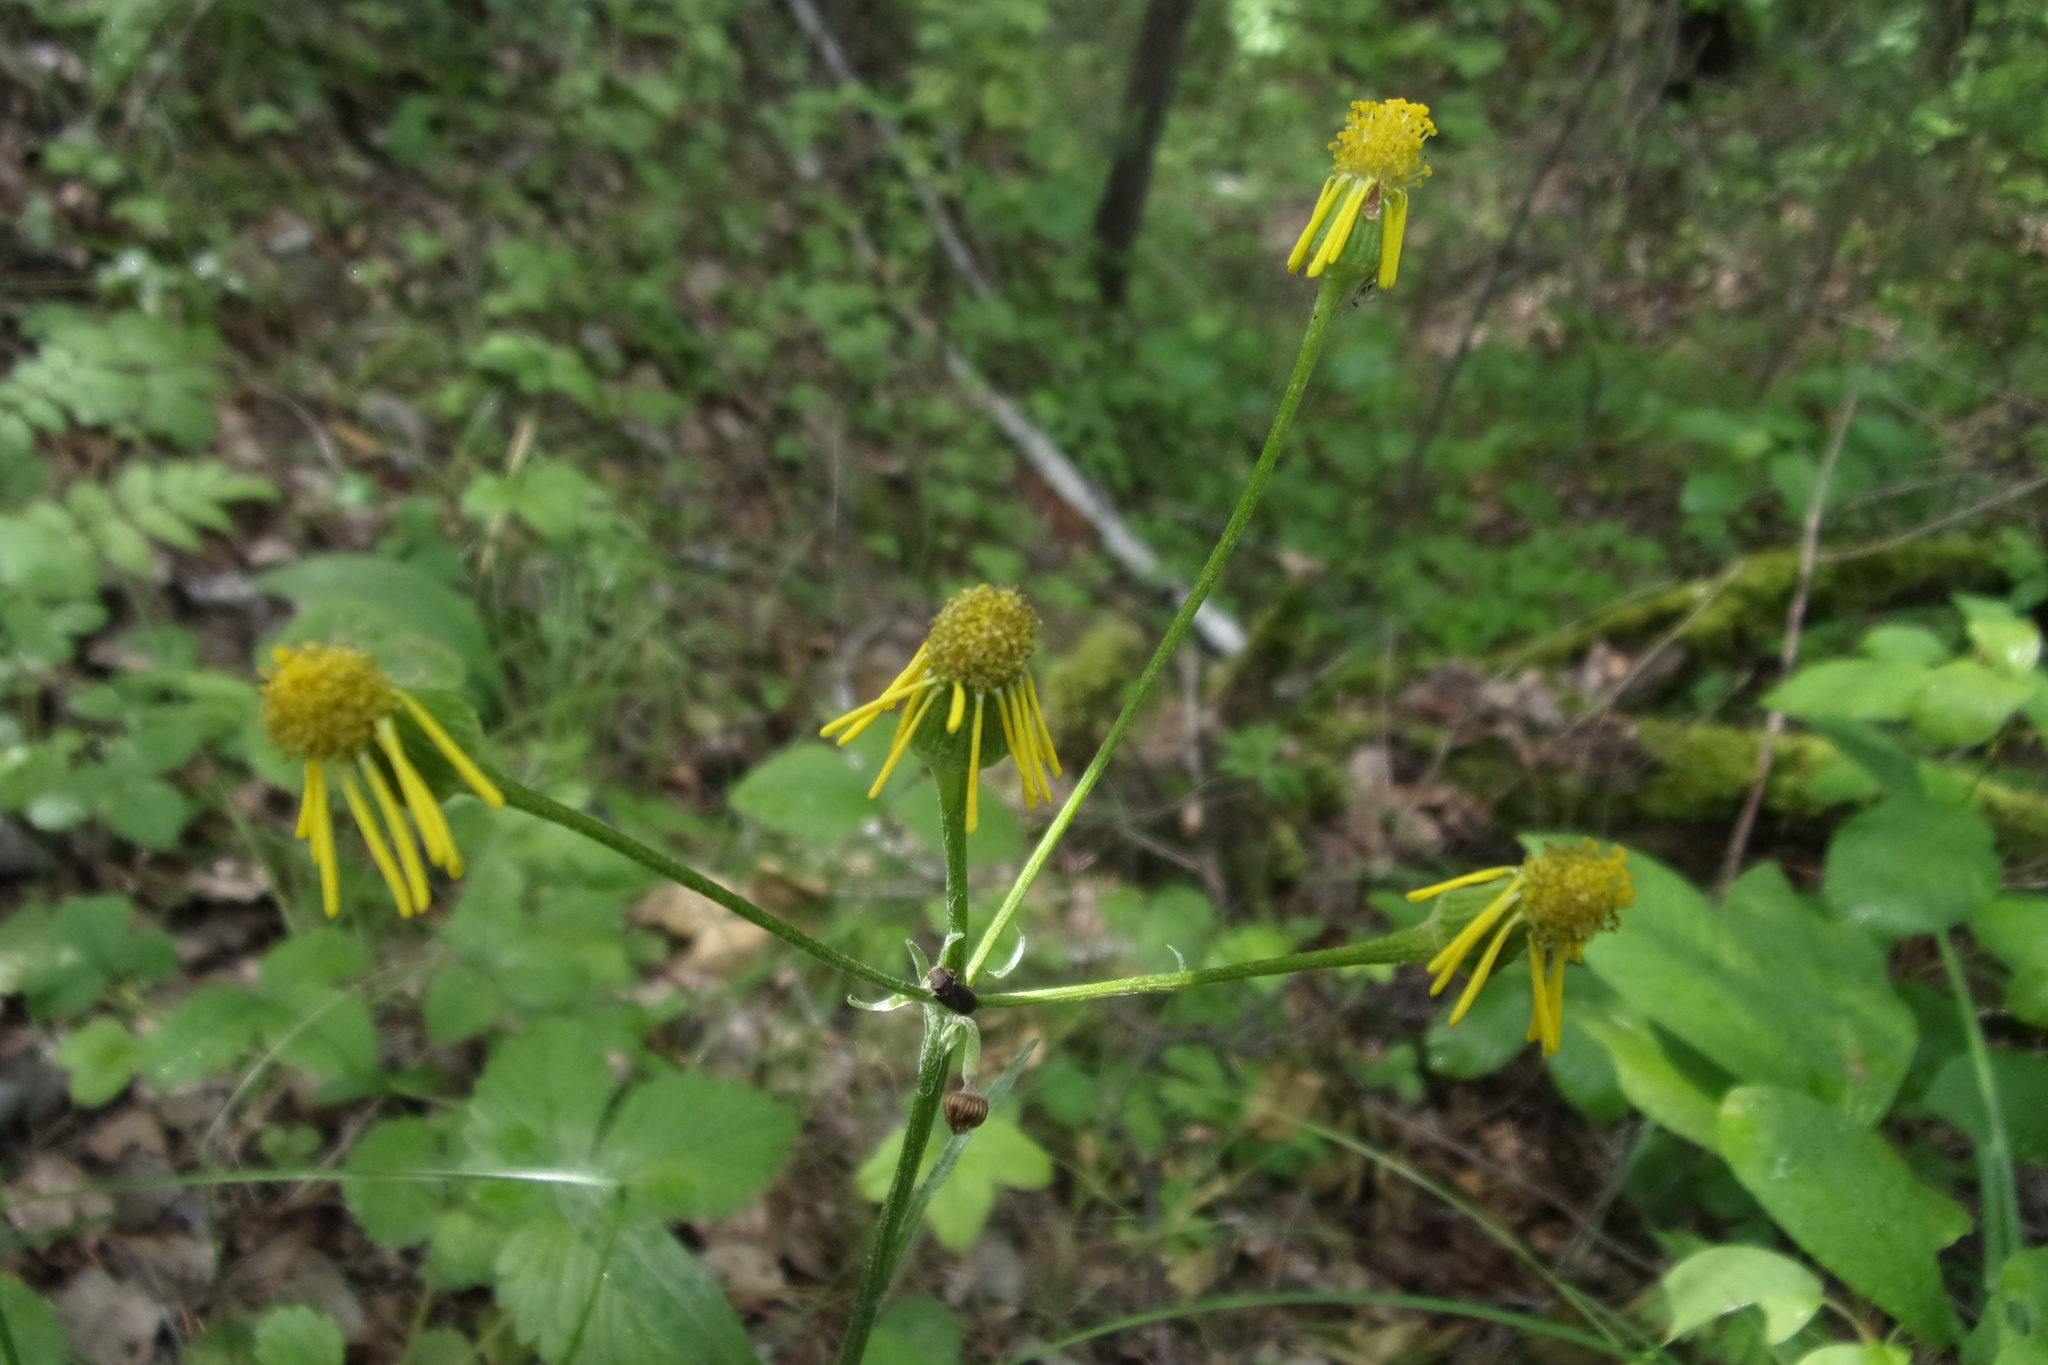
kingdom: Plantae
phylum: Tracheophyta
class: Magnoliopsida
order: Asterales
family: Asteraceae
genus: Tephroseris
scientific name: Tephroseris integrifolia
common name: Field fleawort
